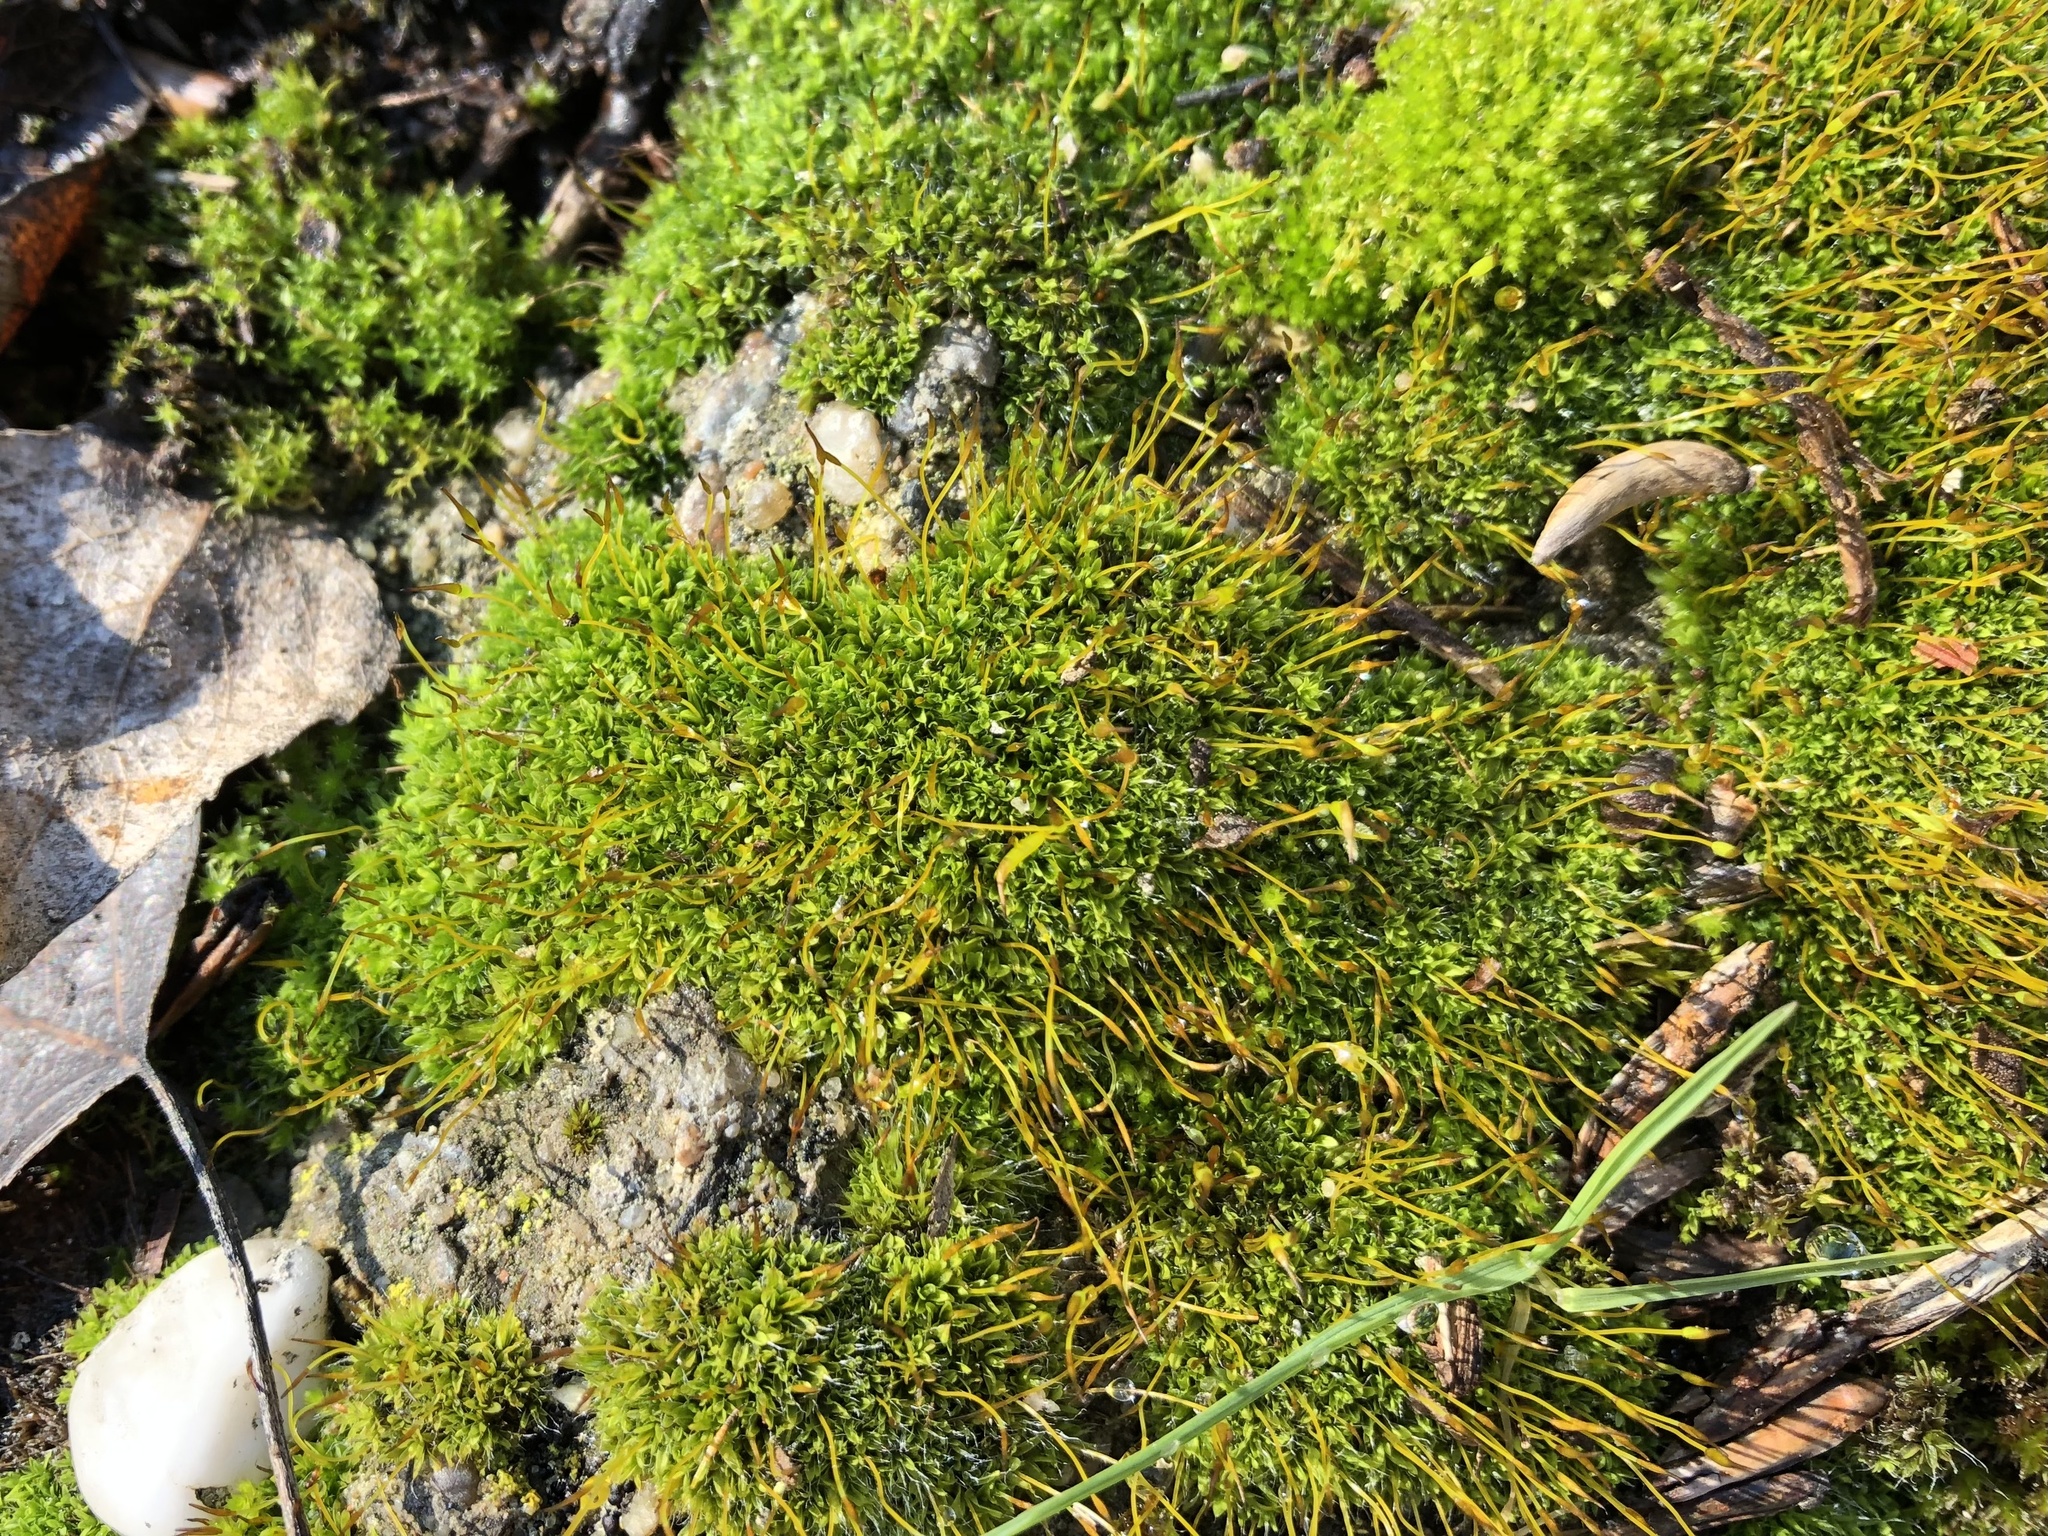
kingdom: Plantae
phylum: Bryophyta
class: Bryopsida
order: Pottiales
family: Pottiaceae
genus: Tortula
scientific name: Tortula muralis
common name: Wall screw-moss
